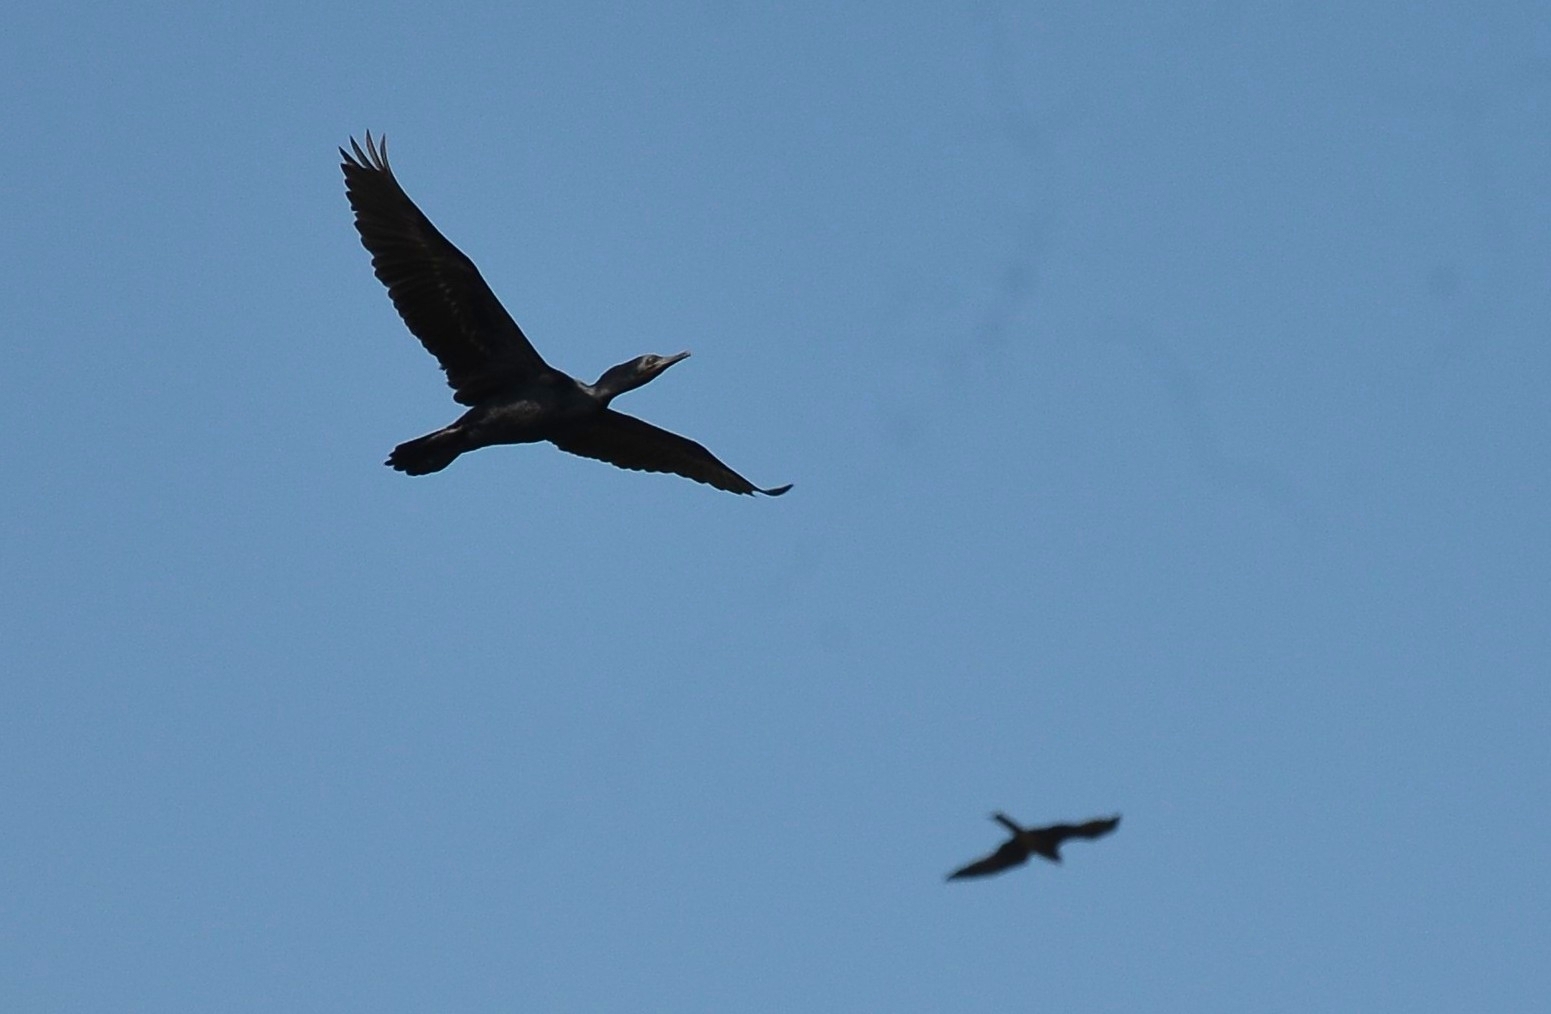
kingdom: Animalia
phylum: Chordata
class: Aves
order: Suliformes
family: Phalacrocoracidae
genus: Phalacrocorax
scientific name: Phalacrocorax fuscicollis
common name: Indian cormorant
